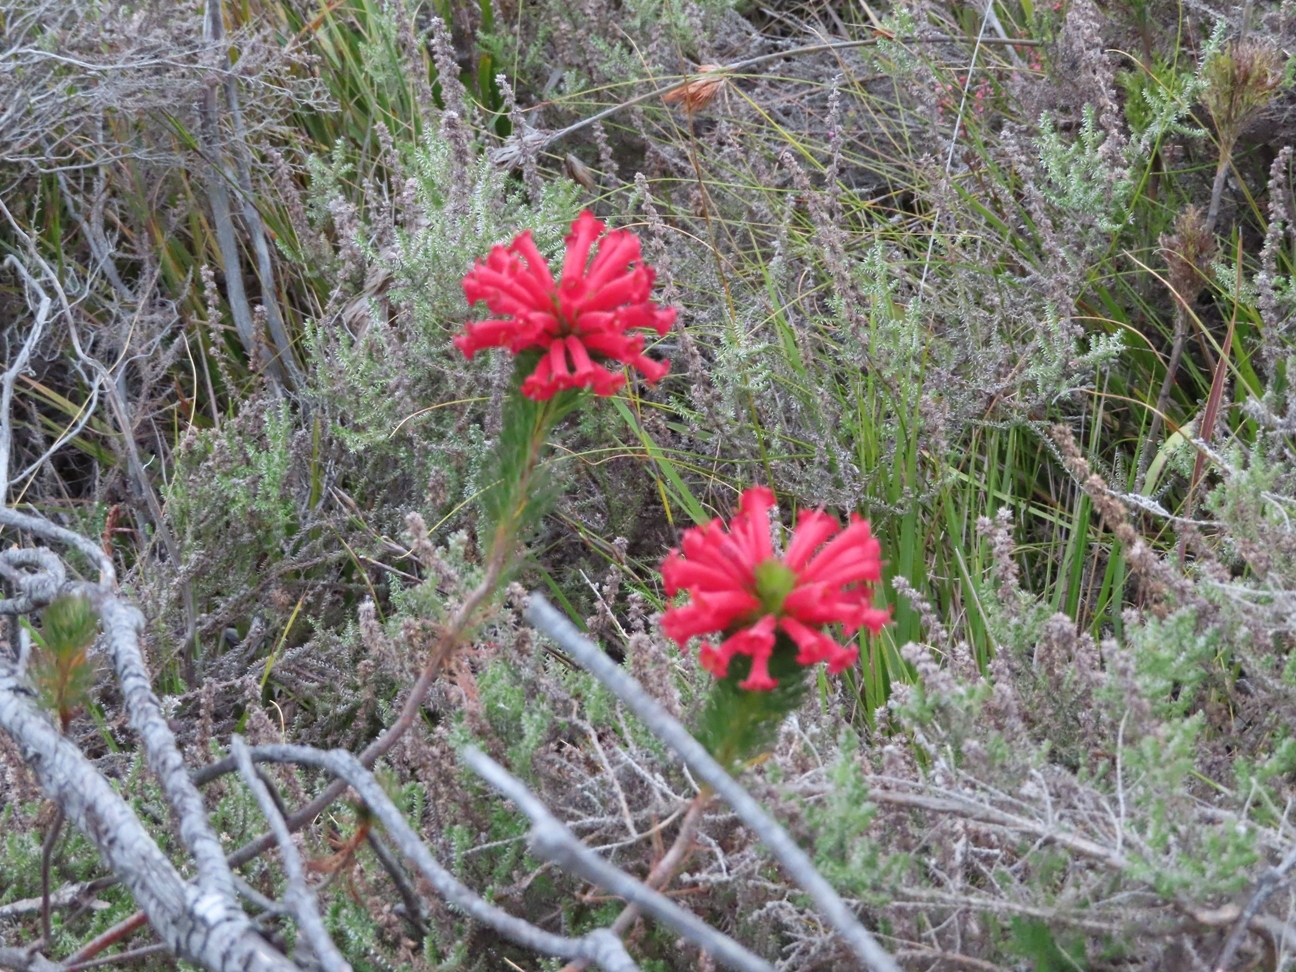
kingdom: Plantae
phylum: Tracheophyta
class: Magnoliopsida
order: Ericales
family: Ericaceae
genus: Erica
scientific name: Erica vestita
